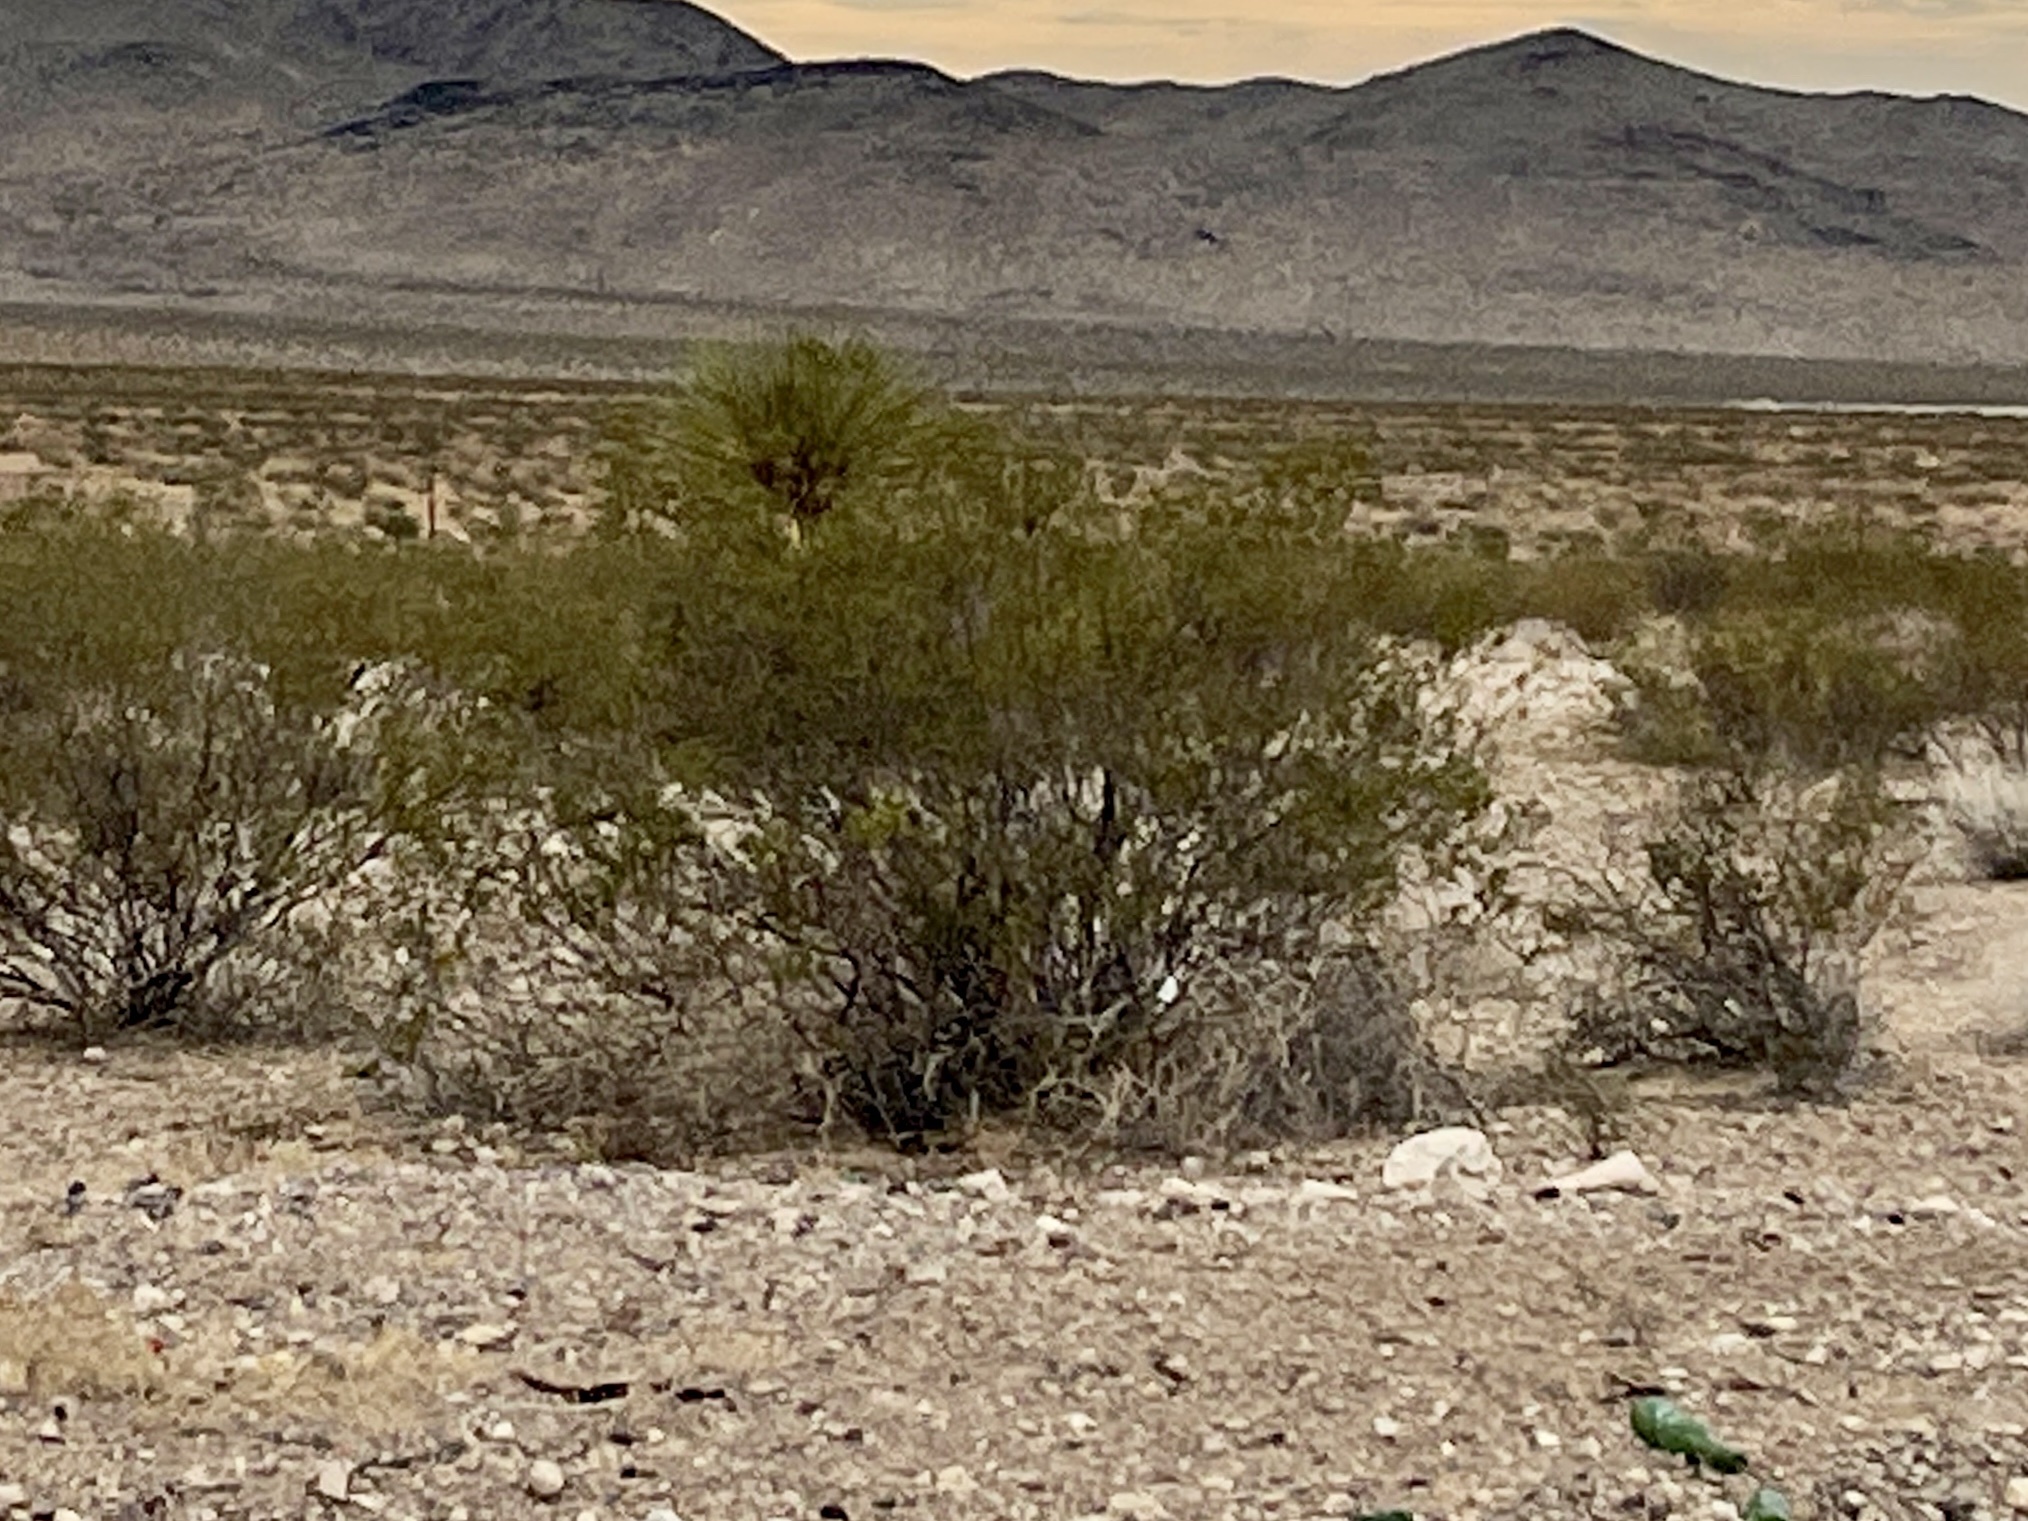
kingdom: Plantae
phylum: Tracheophyta
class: Magnoliopsida
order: Zygophyllales
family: Zygophyllaceae
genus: Larrea
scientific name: Larrea tridentata
